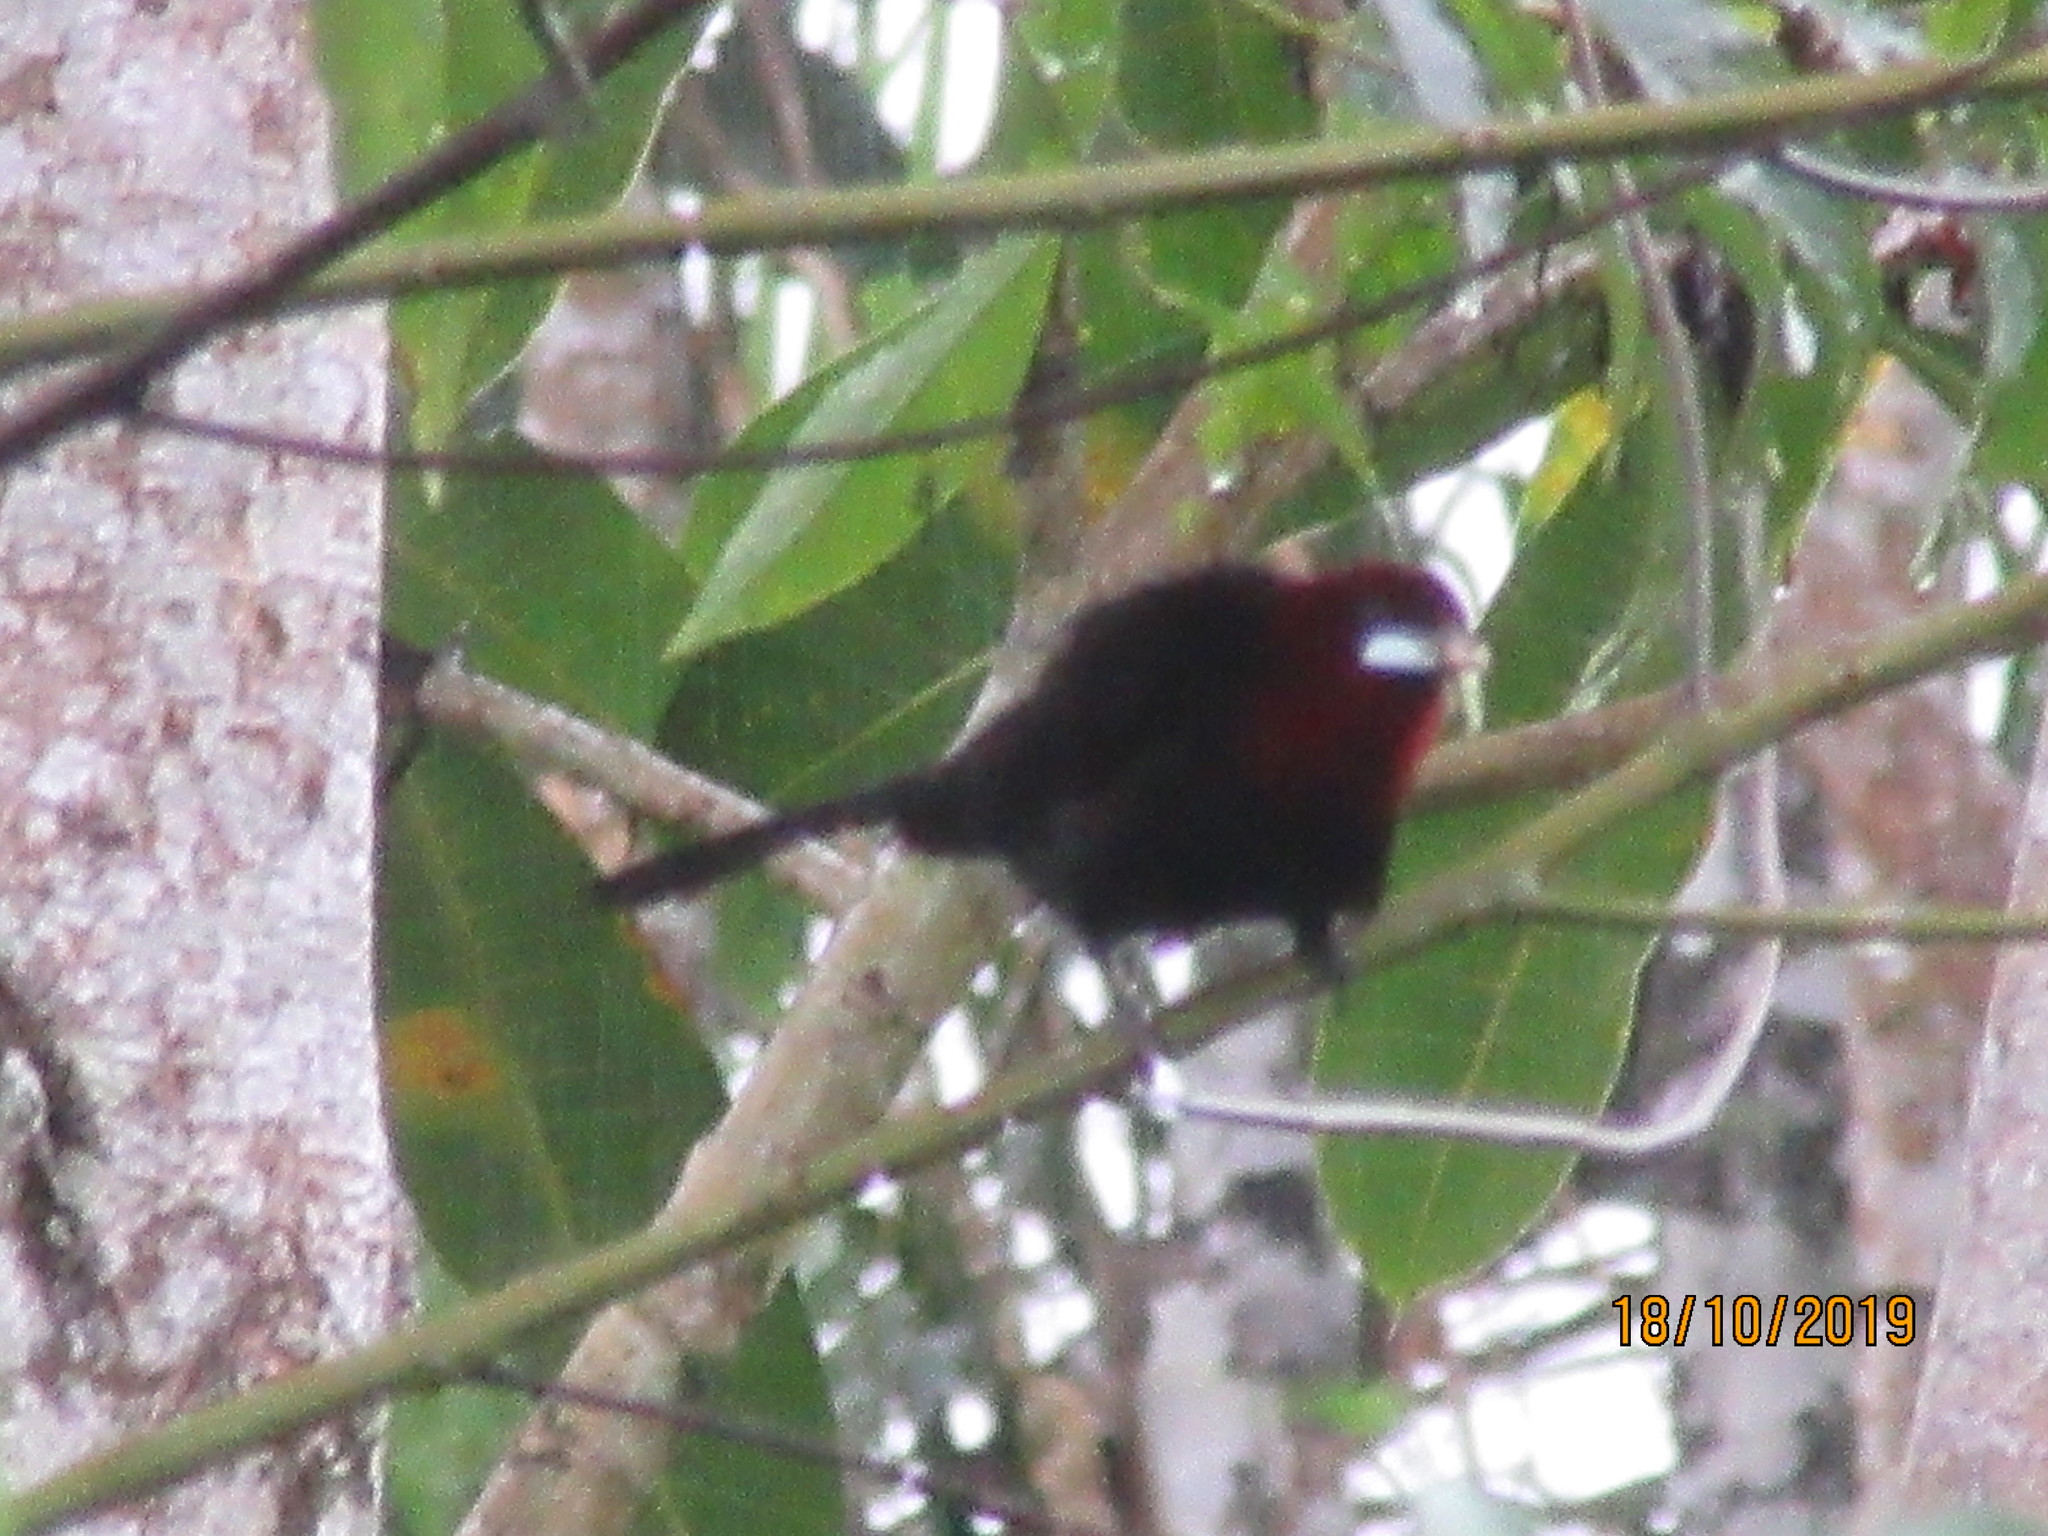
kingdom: Animalia
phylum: Chordata
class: Aves
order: Passeriformes
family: Thraupidae
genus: Ramphocelus
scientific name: Ramphocelus carbo
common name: Silver-beaked tanager
